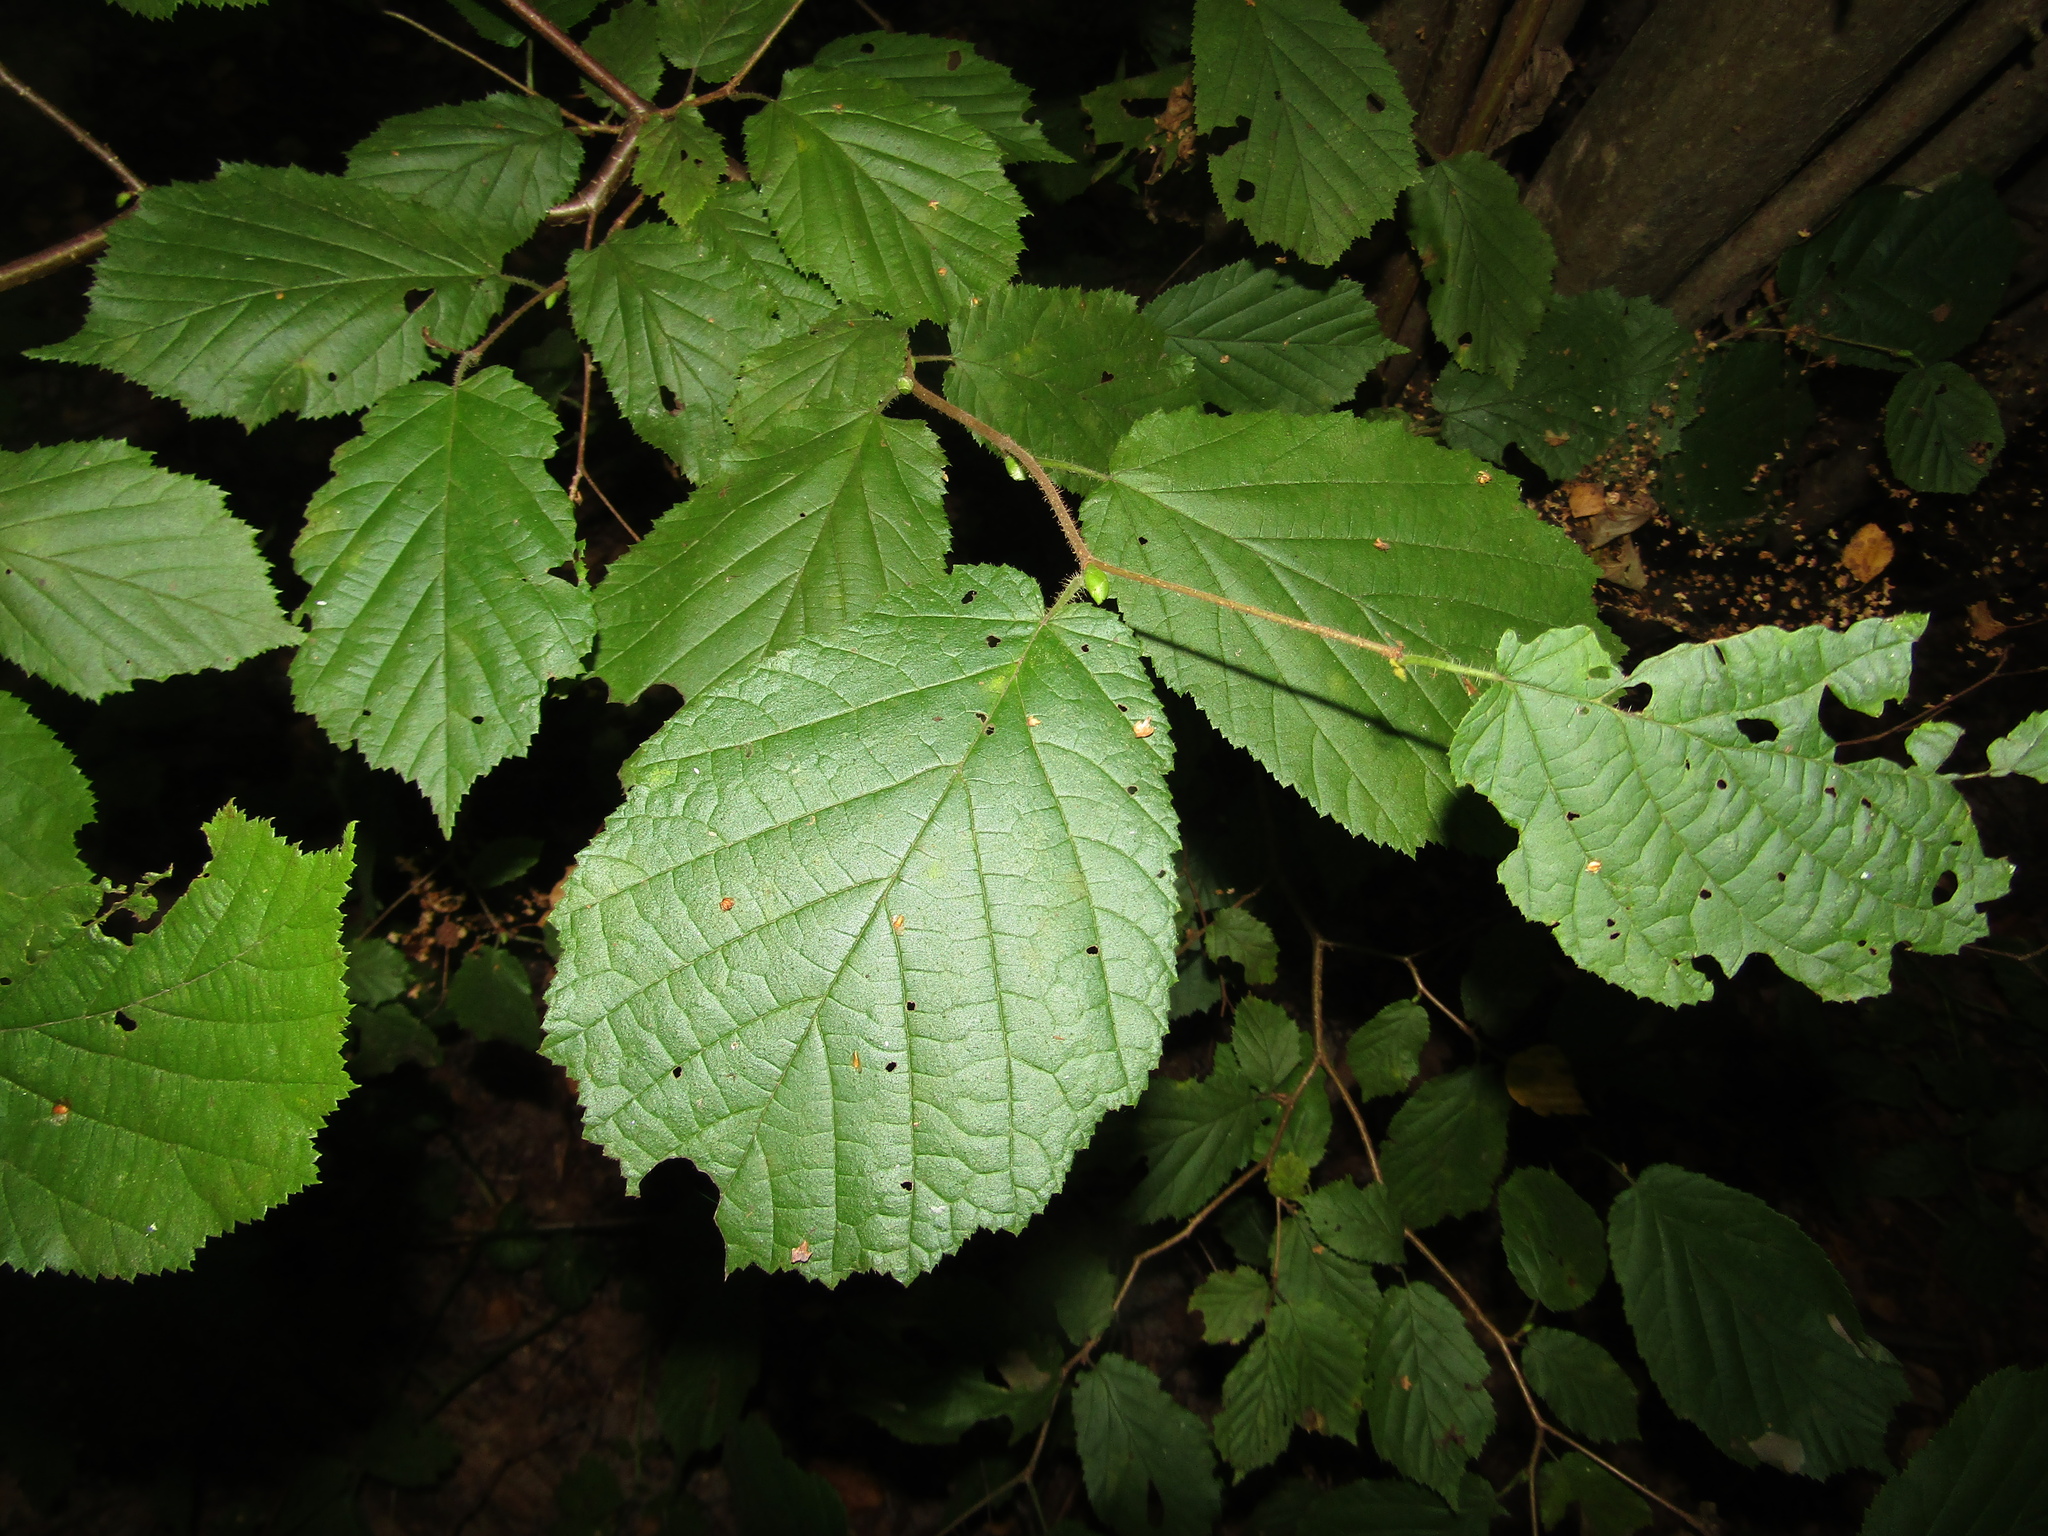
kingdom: Plantae
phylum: Tracheophyta
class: Magnoliopsida
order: Fagales
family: Betulaceae
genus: Corylus
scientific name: Corylus avellana
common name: European hazel
